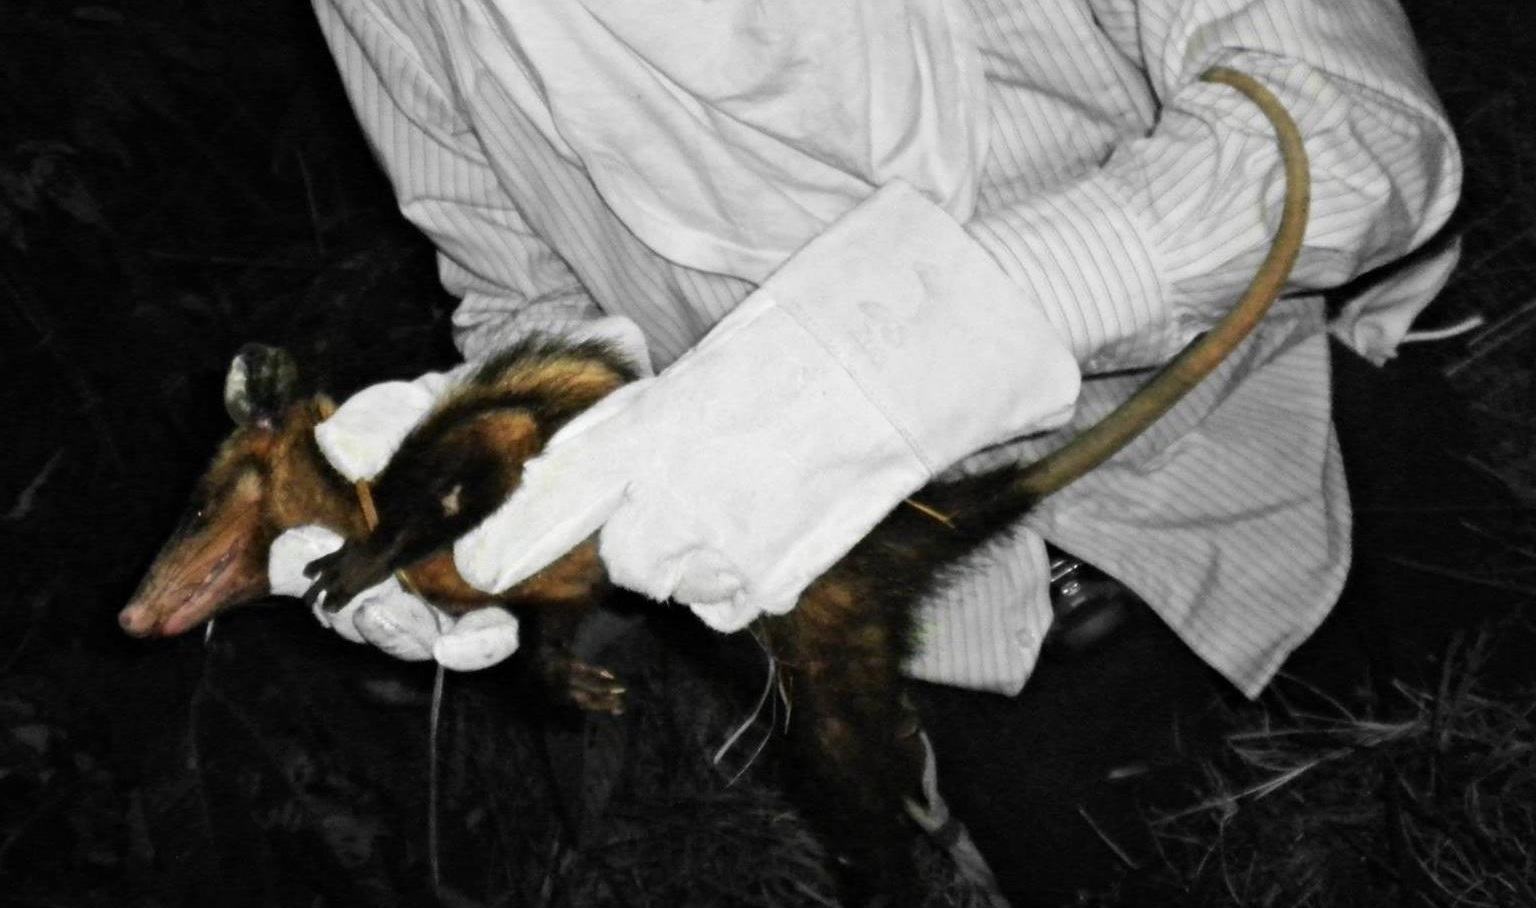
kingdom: Animalia
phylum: Chordata
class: Mammalia
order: Didelphimorphia
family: Didelphidae
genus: Didelphis
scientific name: Didelphis marsupialis
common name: Common opossum
